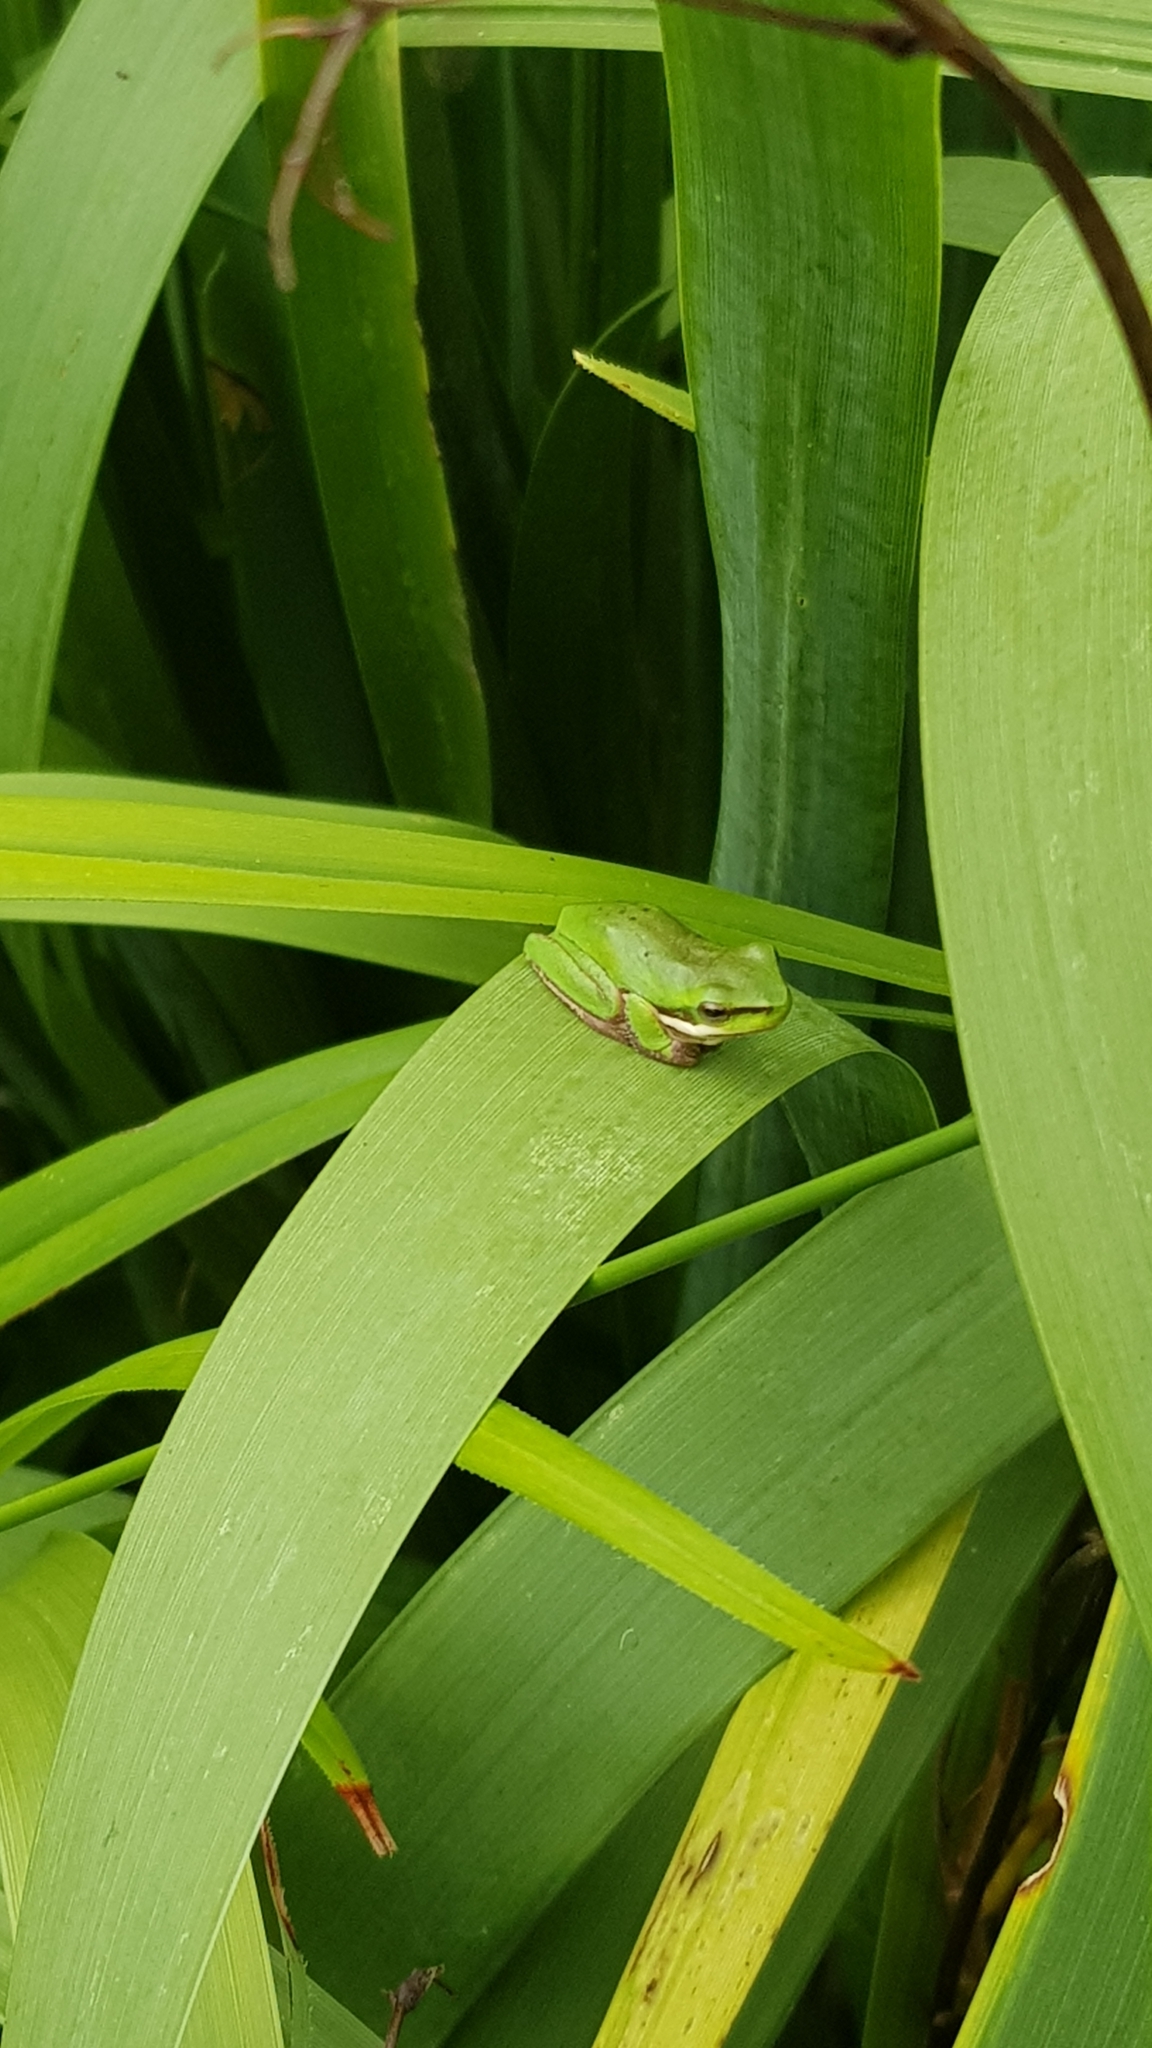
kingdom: Animalia
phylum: Chordata
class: Amphibia
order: Anura
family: Pelodryadidae
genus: Litoria
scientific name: Litoria fallax
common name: Eastern dwarf treefrog
